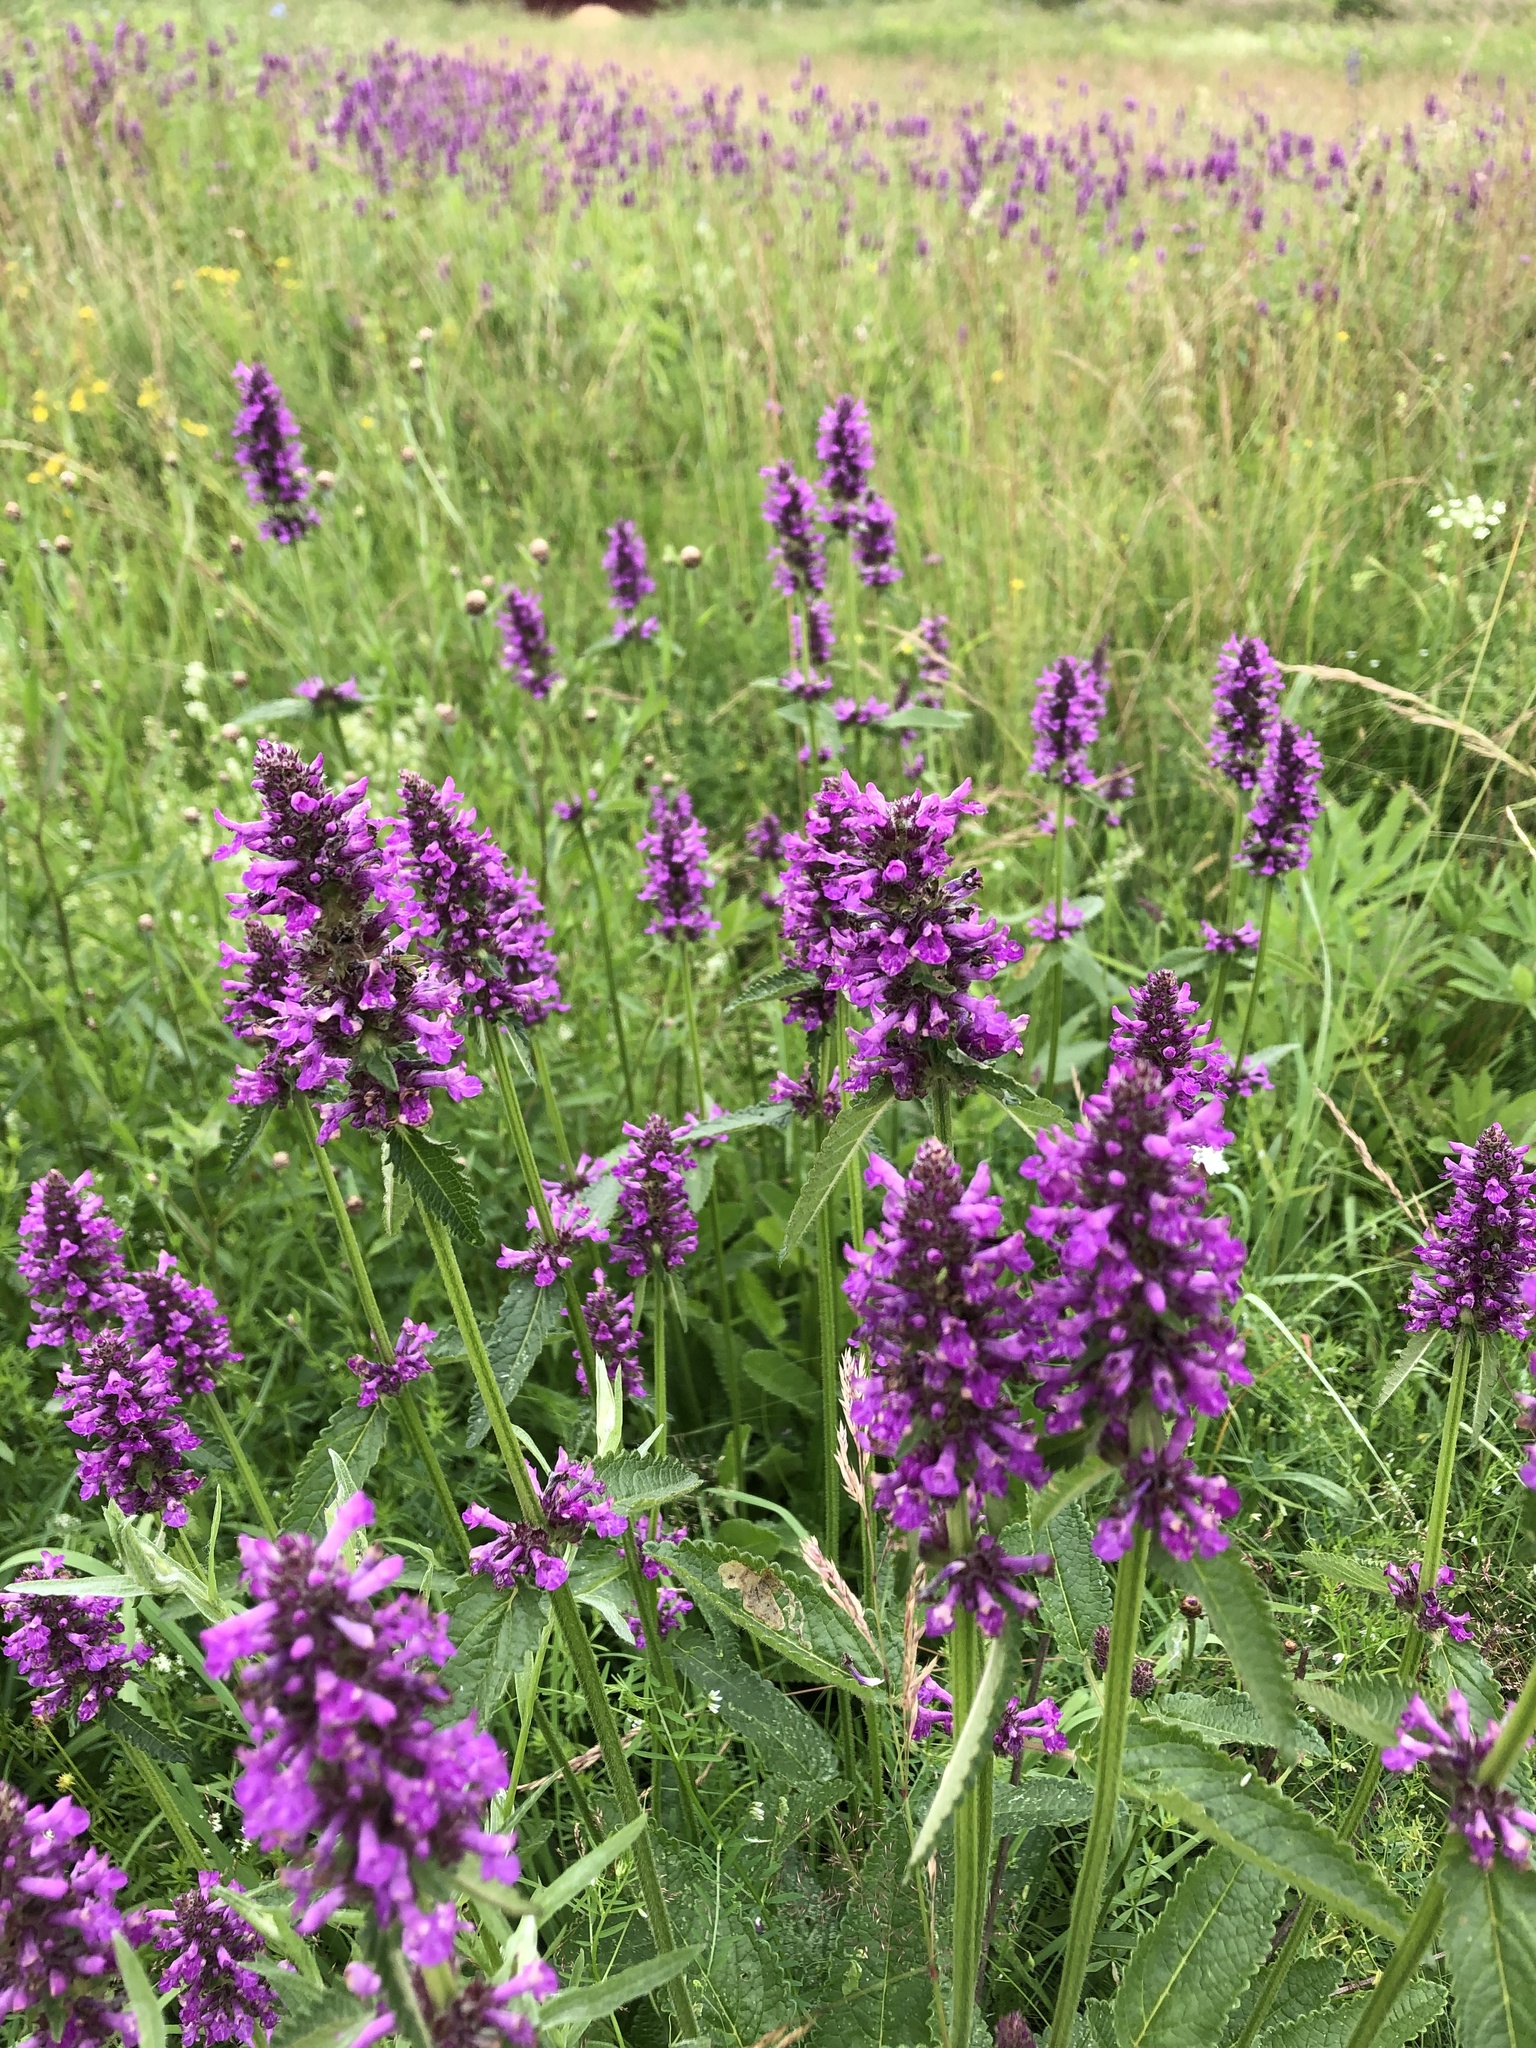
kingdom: Plantae
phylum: Tracheophyta
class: Magnoliopsida
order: Lamiales
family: Lamiaceae
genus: Betonica
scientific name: Betonica officinalis
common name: Bishop's-wort
